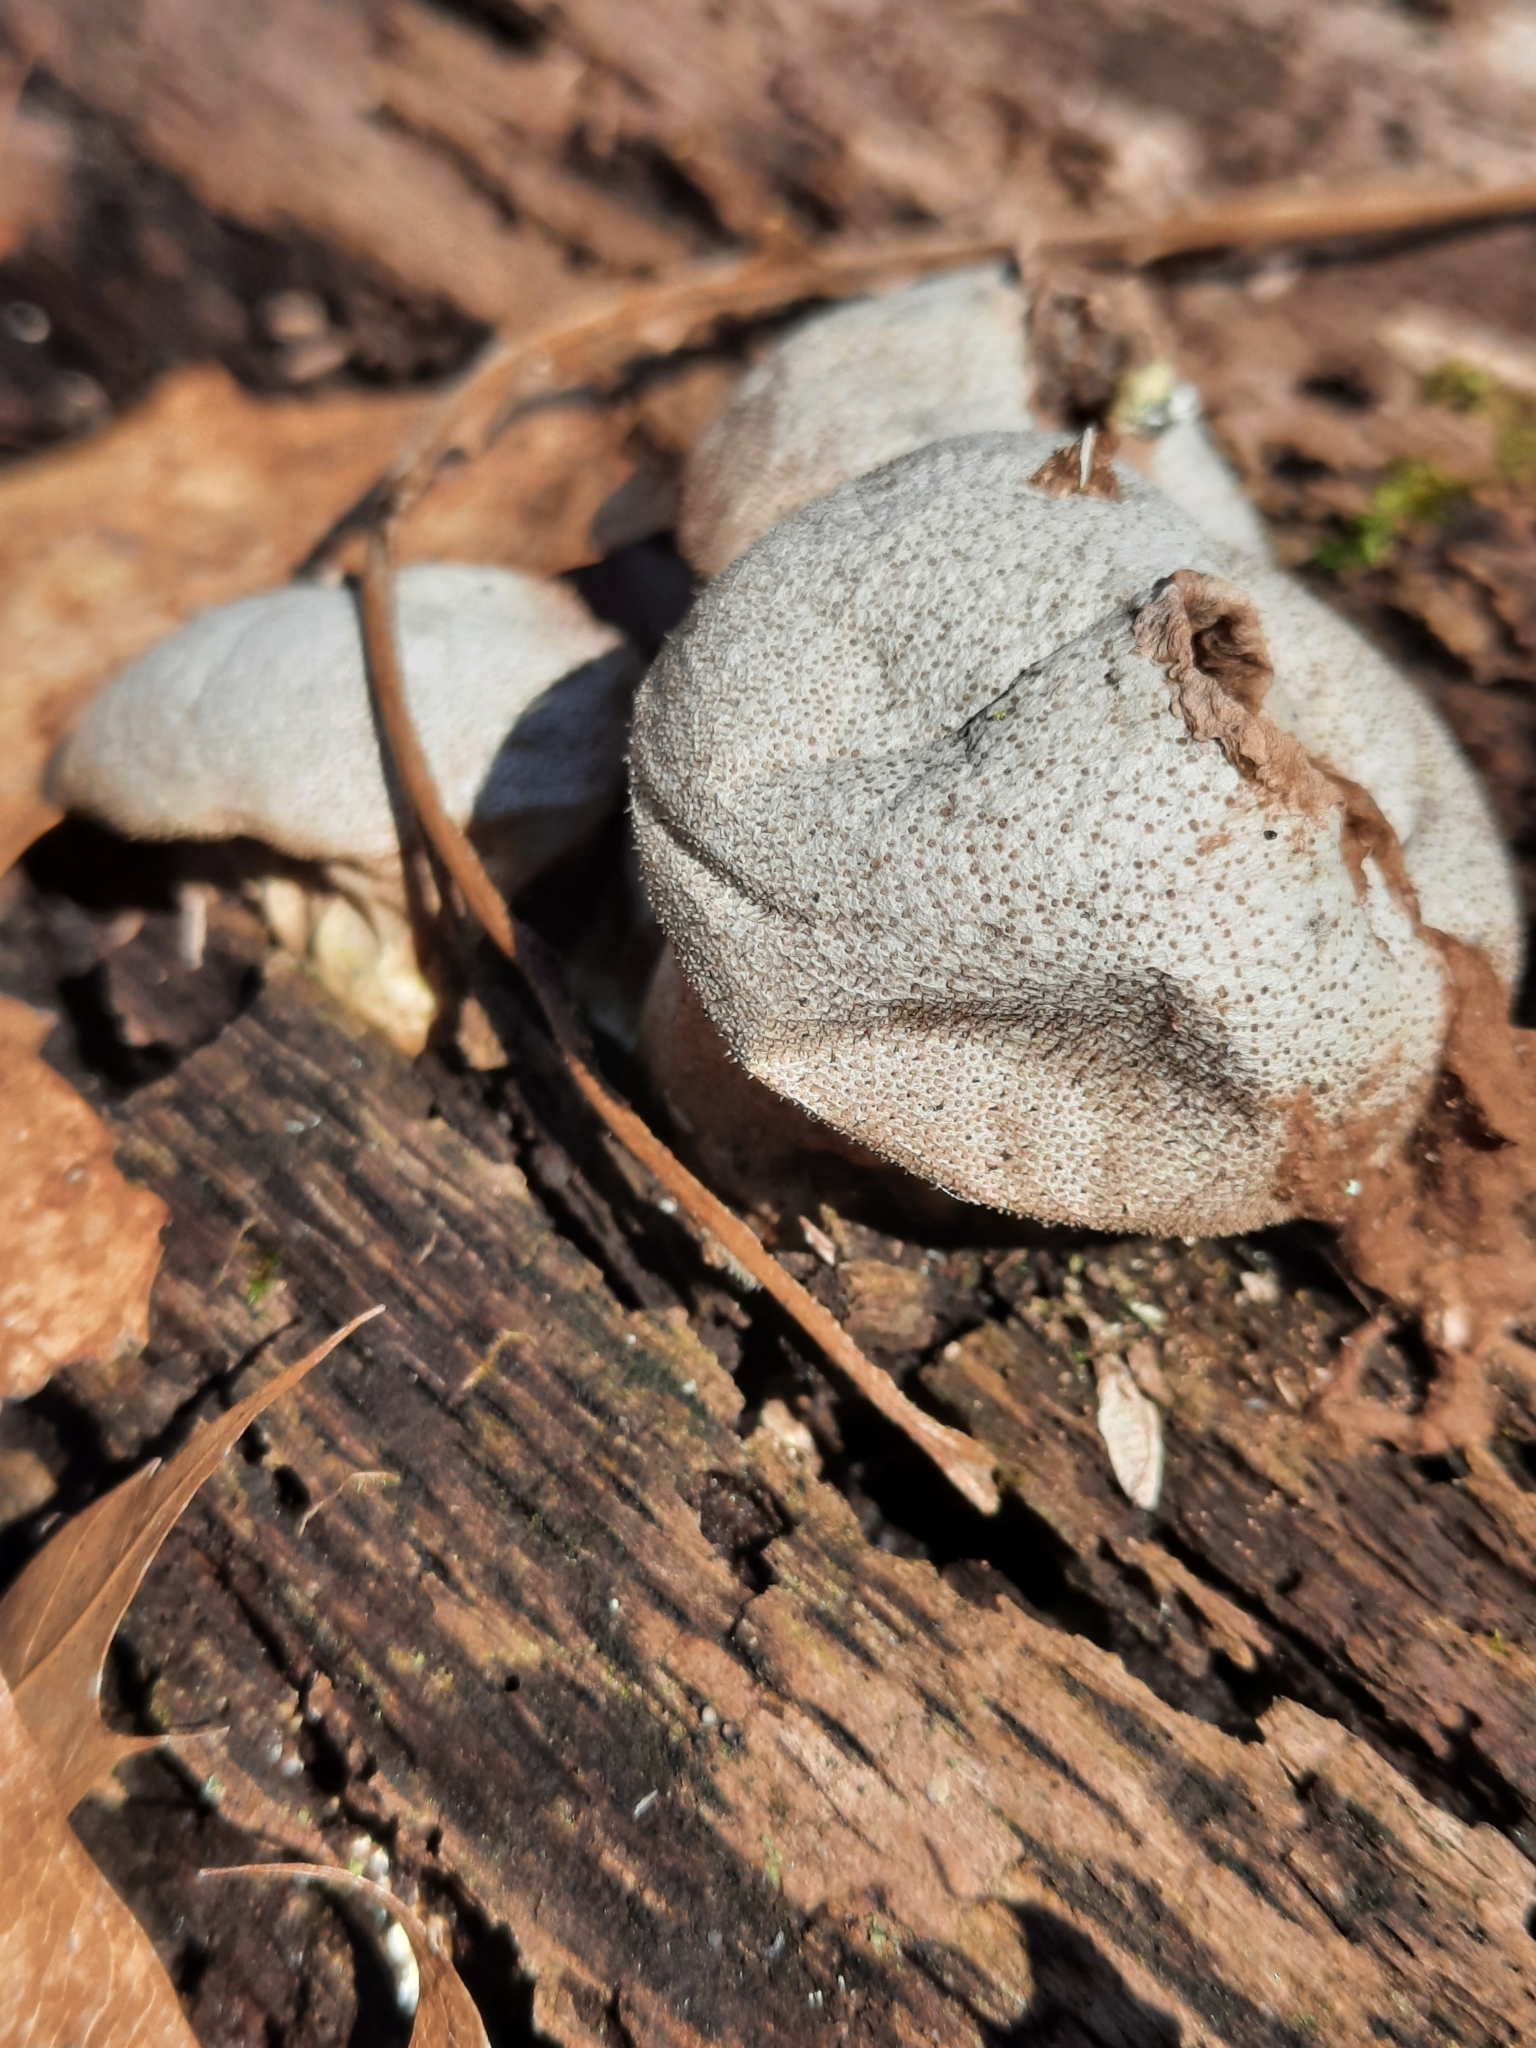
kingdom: Fungi
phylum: Basidiomycota
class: Agaricomycetes
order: Agaricales
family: Lycoperdaceae
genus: Apioperdon
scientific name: Apioperdon pyriforme
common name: Pear-shaped puffball
